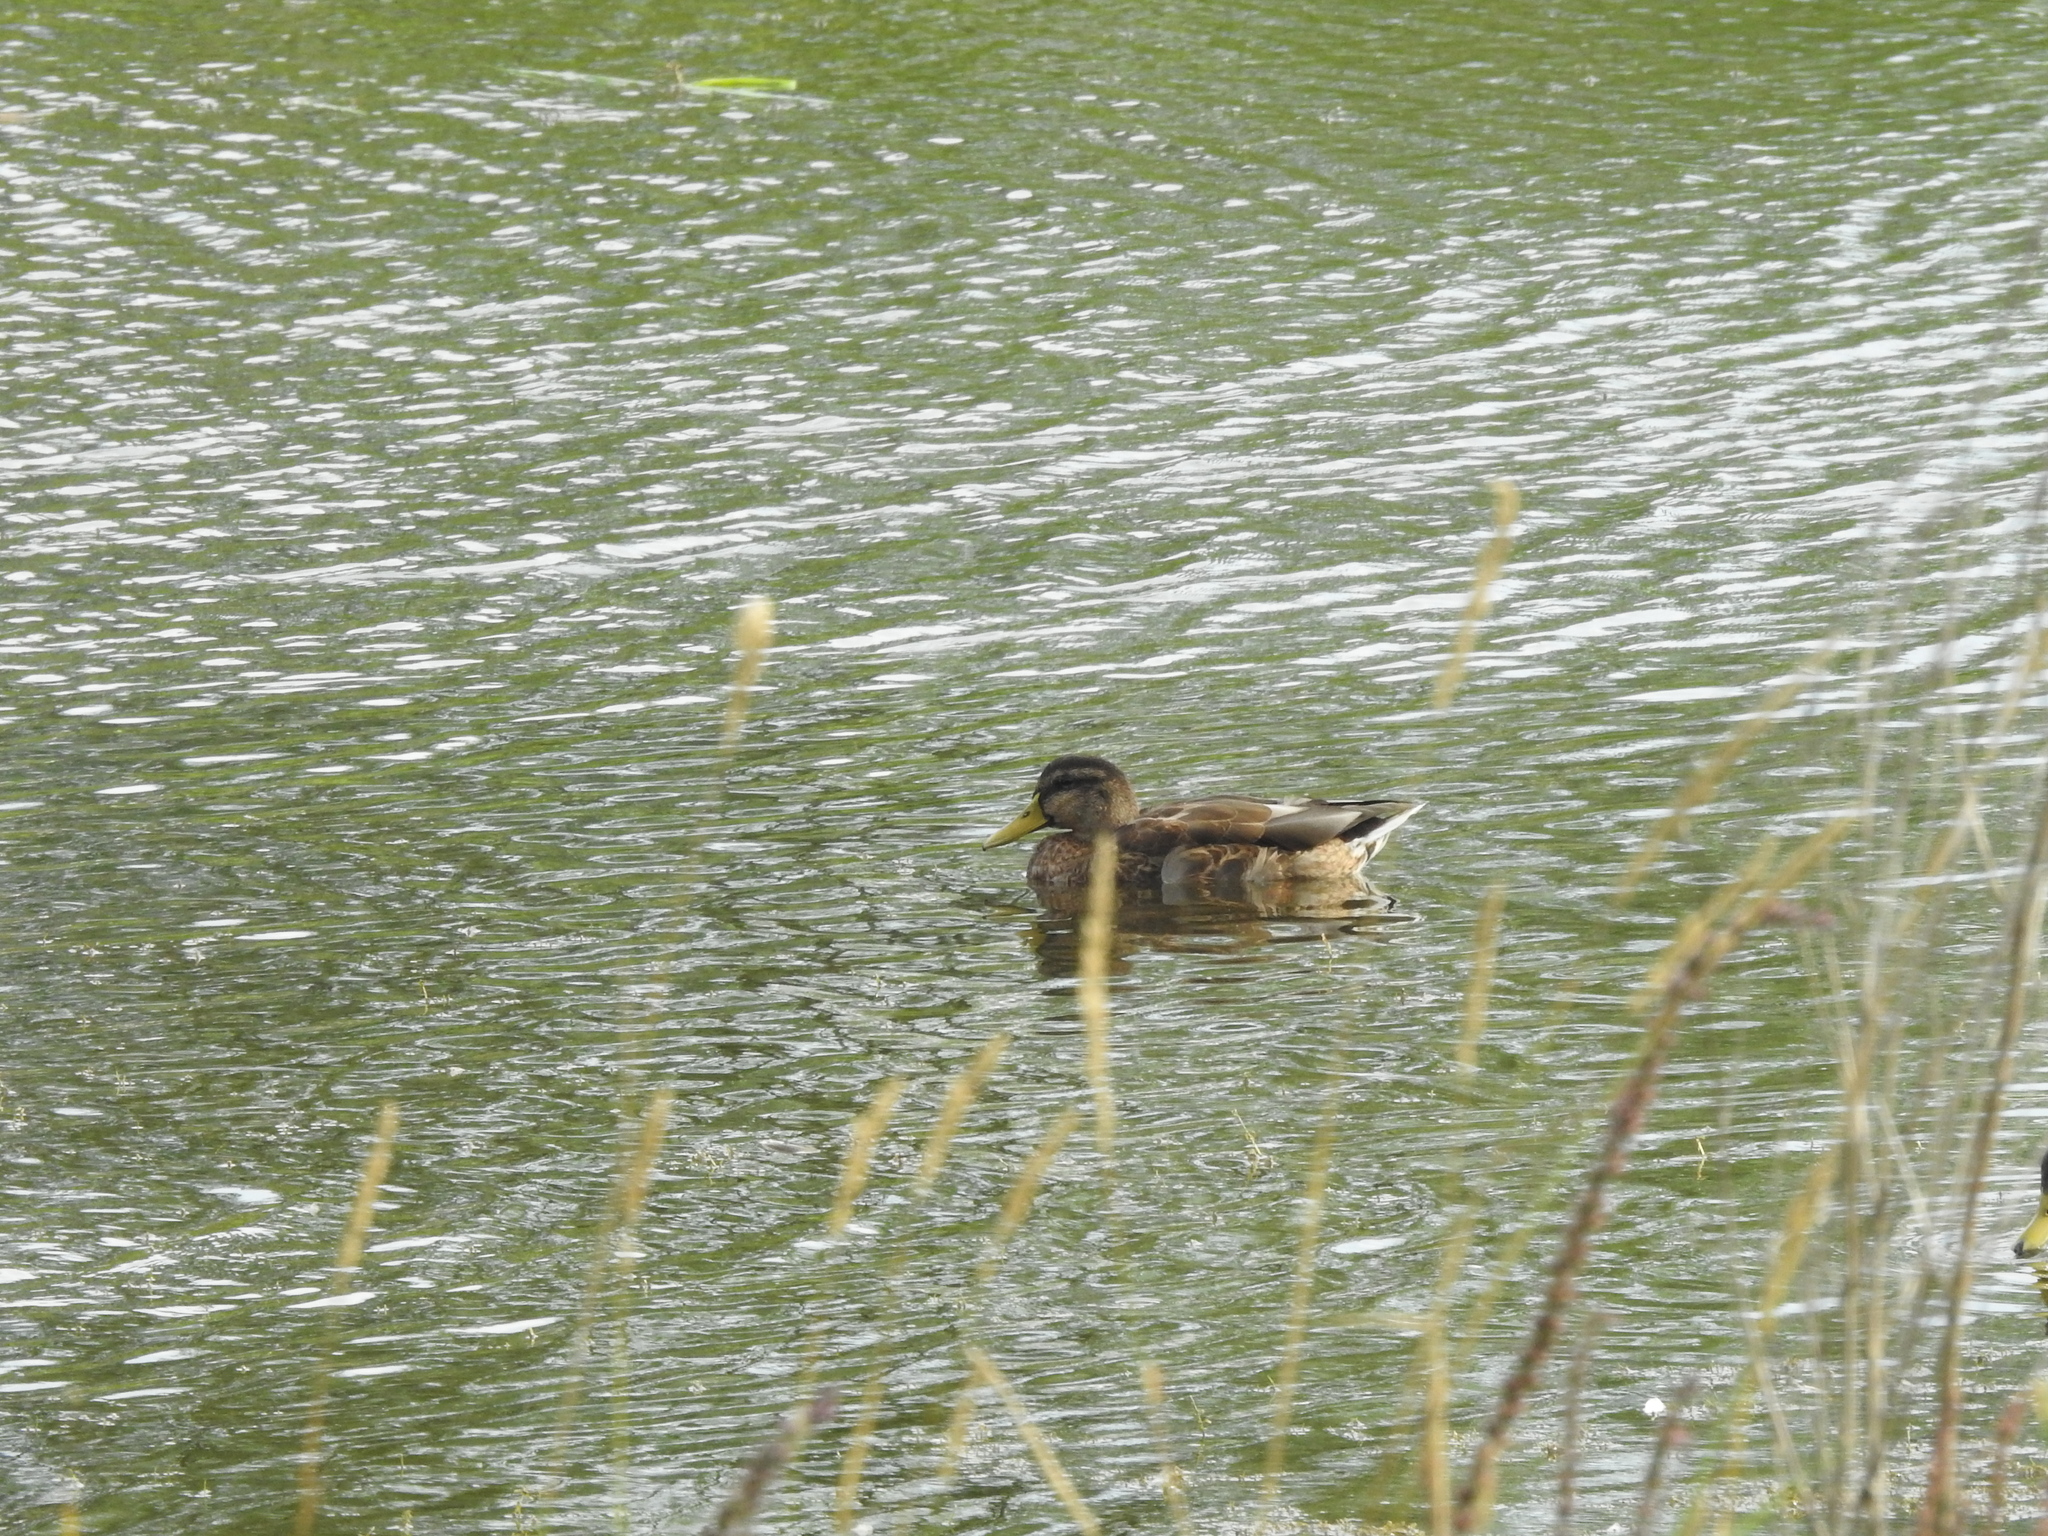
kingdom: Animalia
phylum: Chordata
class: Aves
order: Anseriformes
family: Anatidae
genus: Anas
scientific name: Anas platyrhynchos
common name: Mallard
